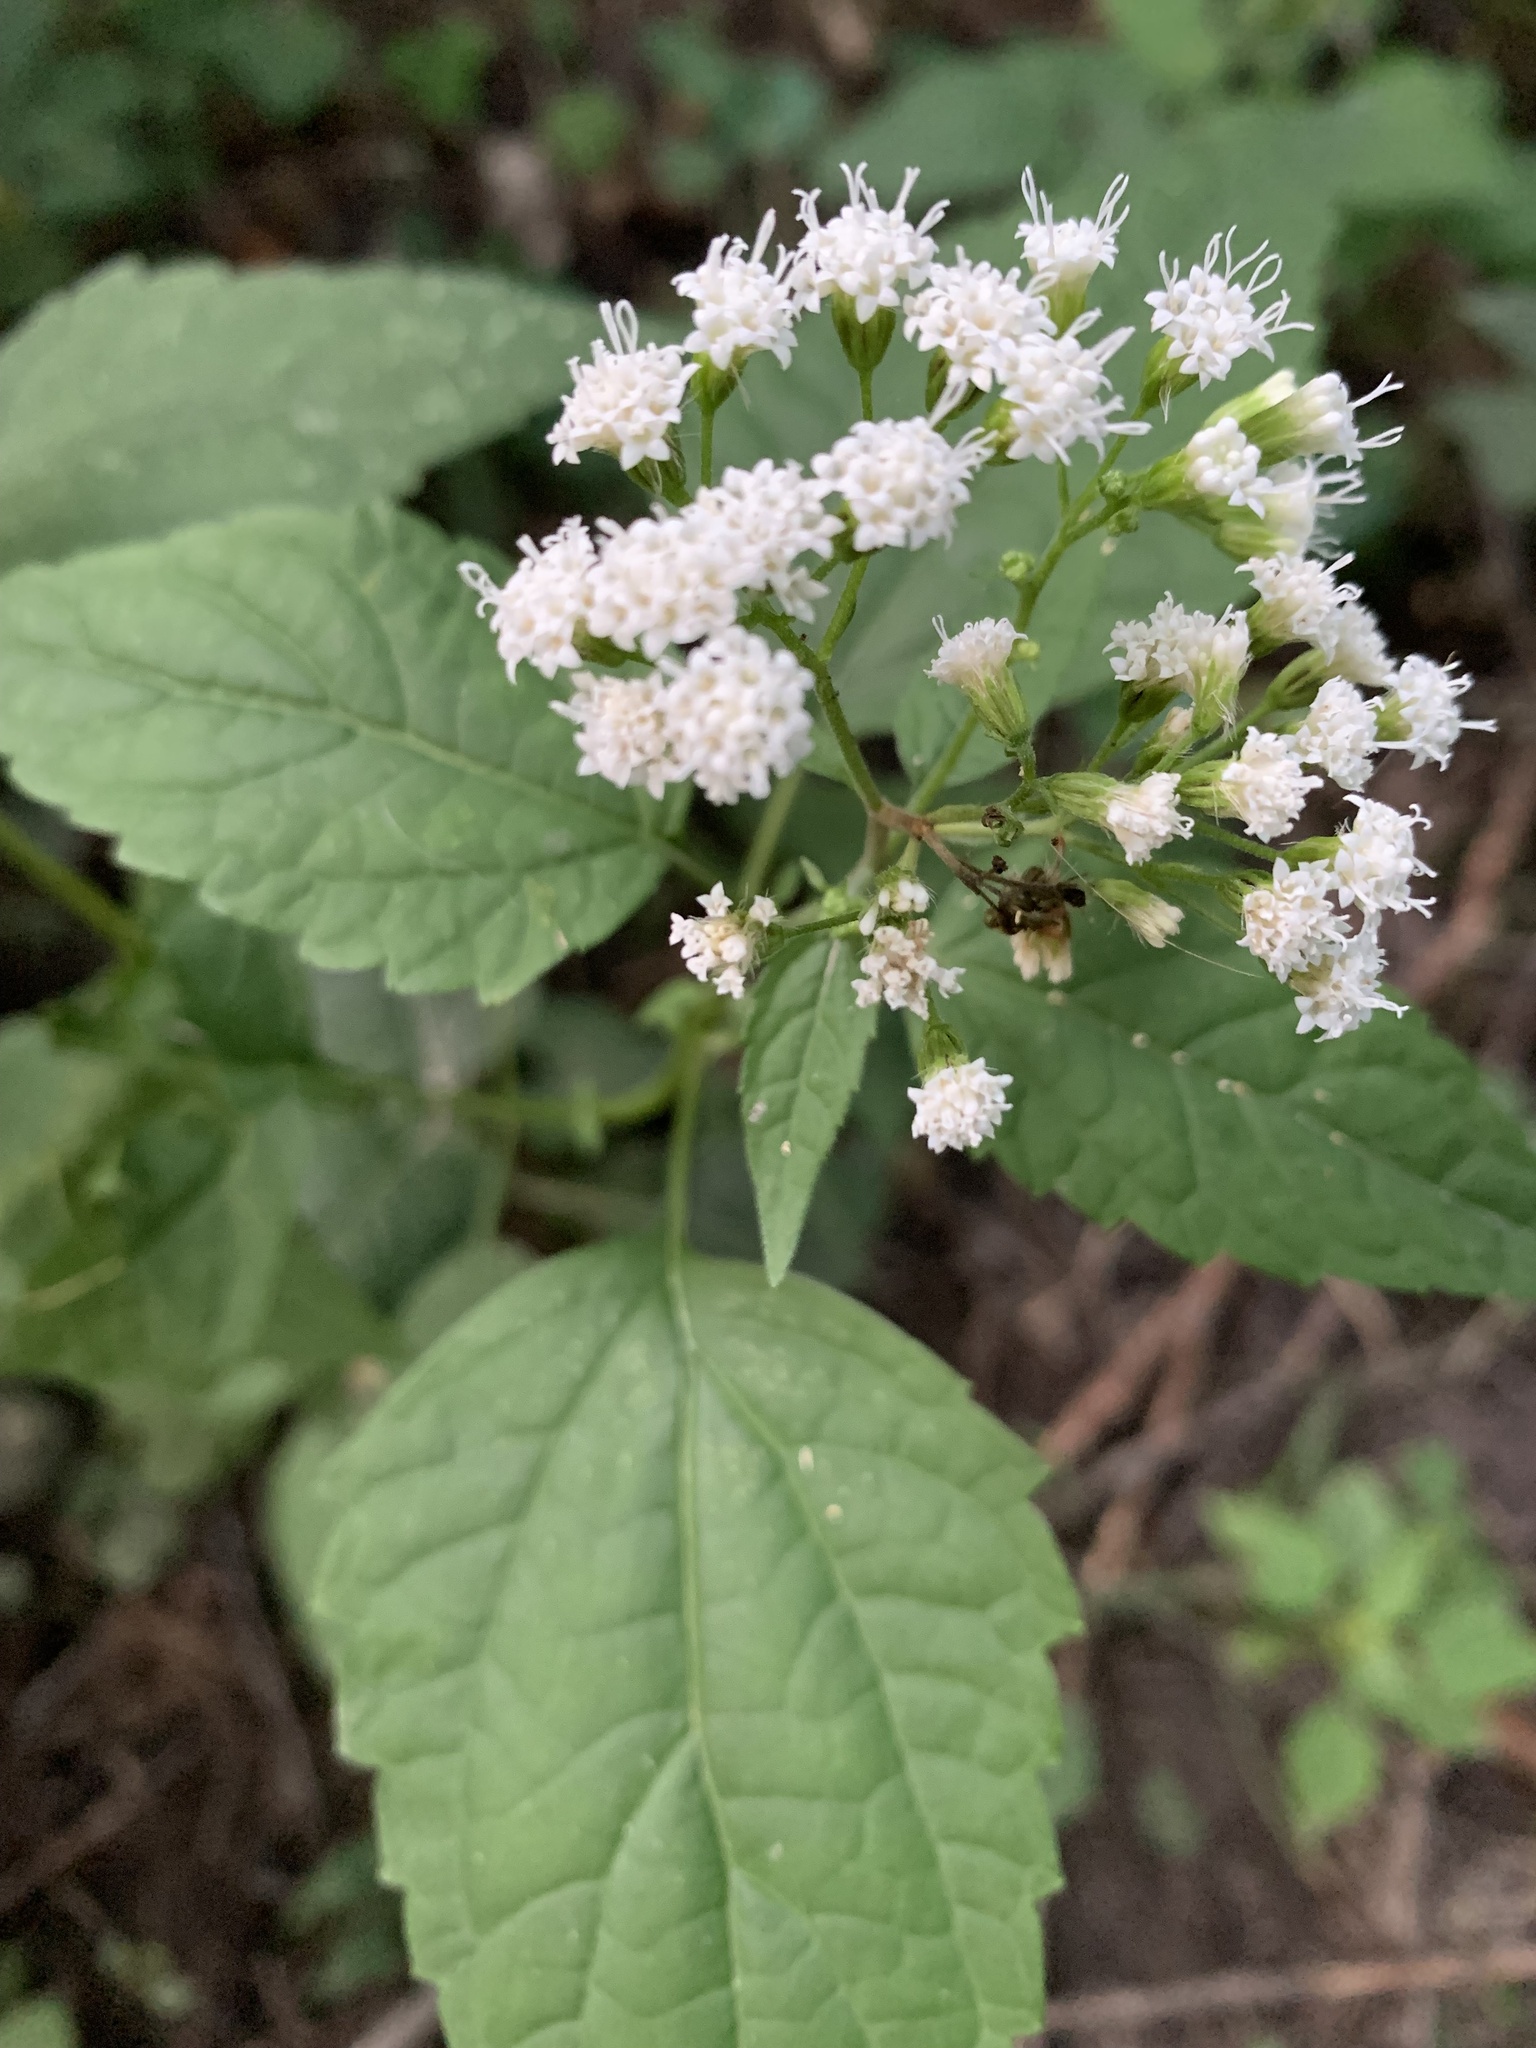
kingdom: Plantae
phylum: Tracheophyta
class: Magnoliopsida
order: Asterales
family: Asteraceae
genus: Ageratina
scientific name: Ageratina altissima
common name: White snakeroot
